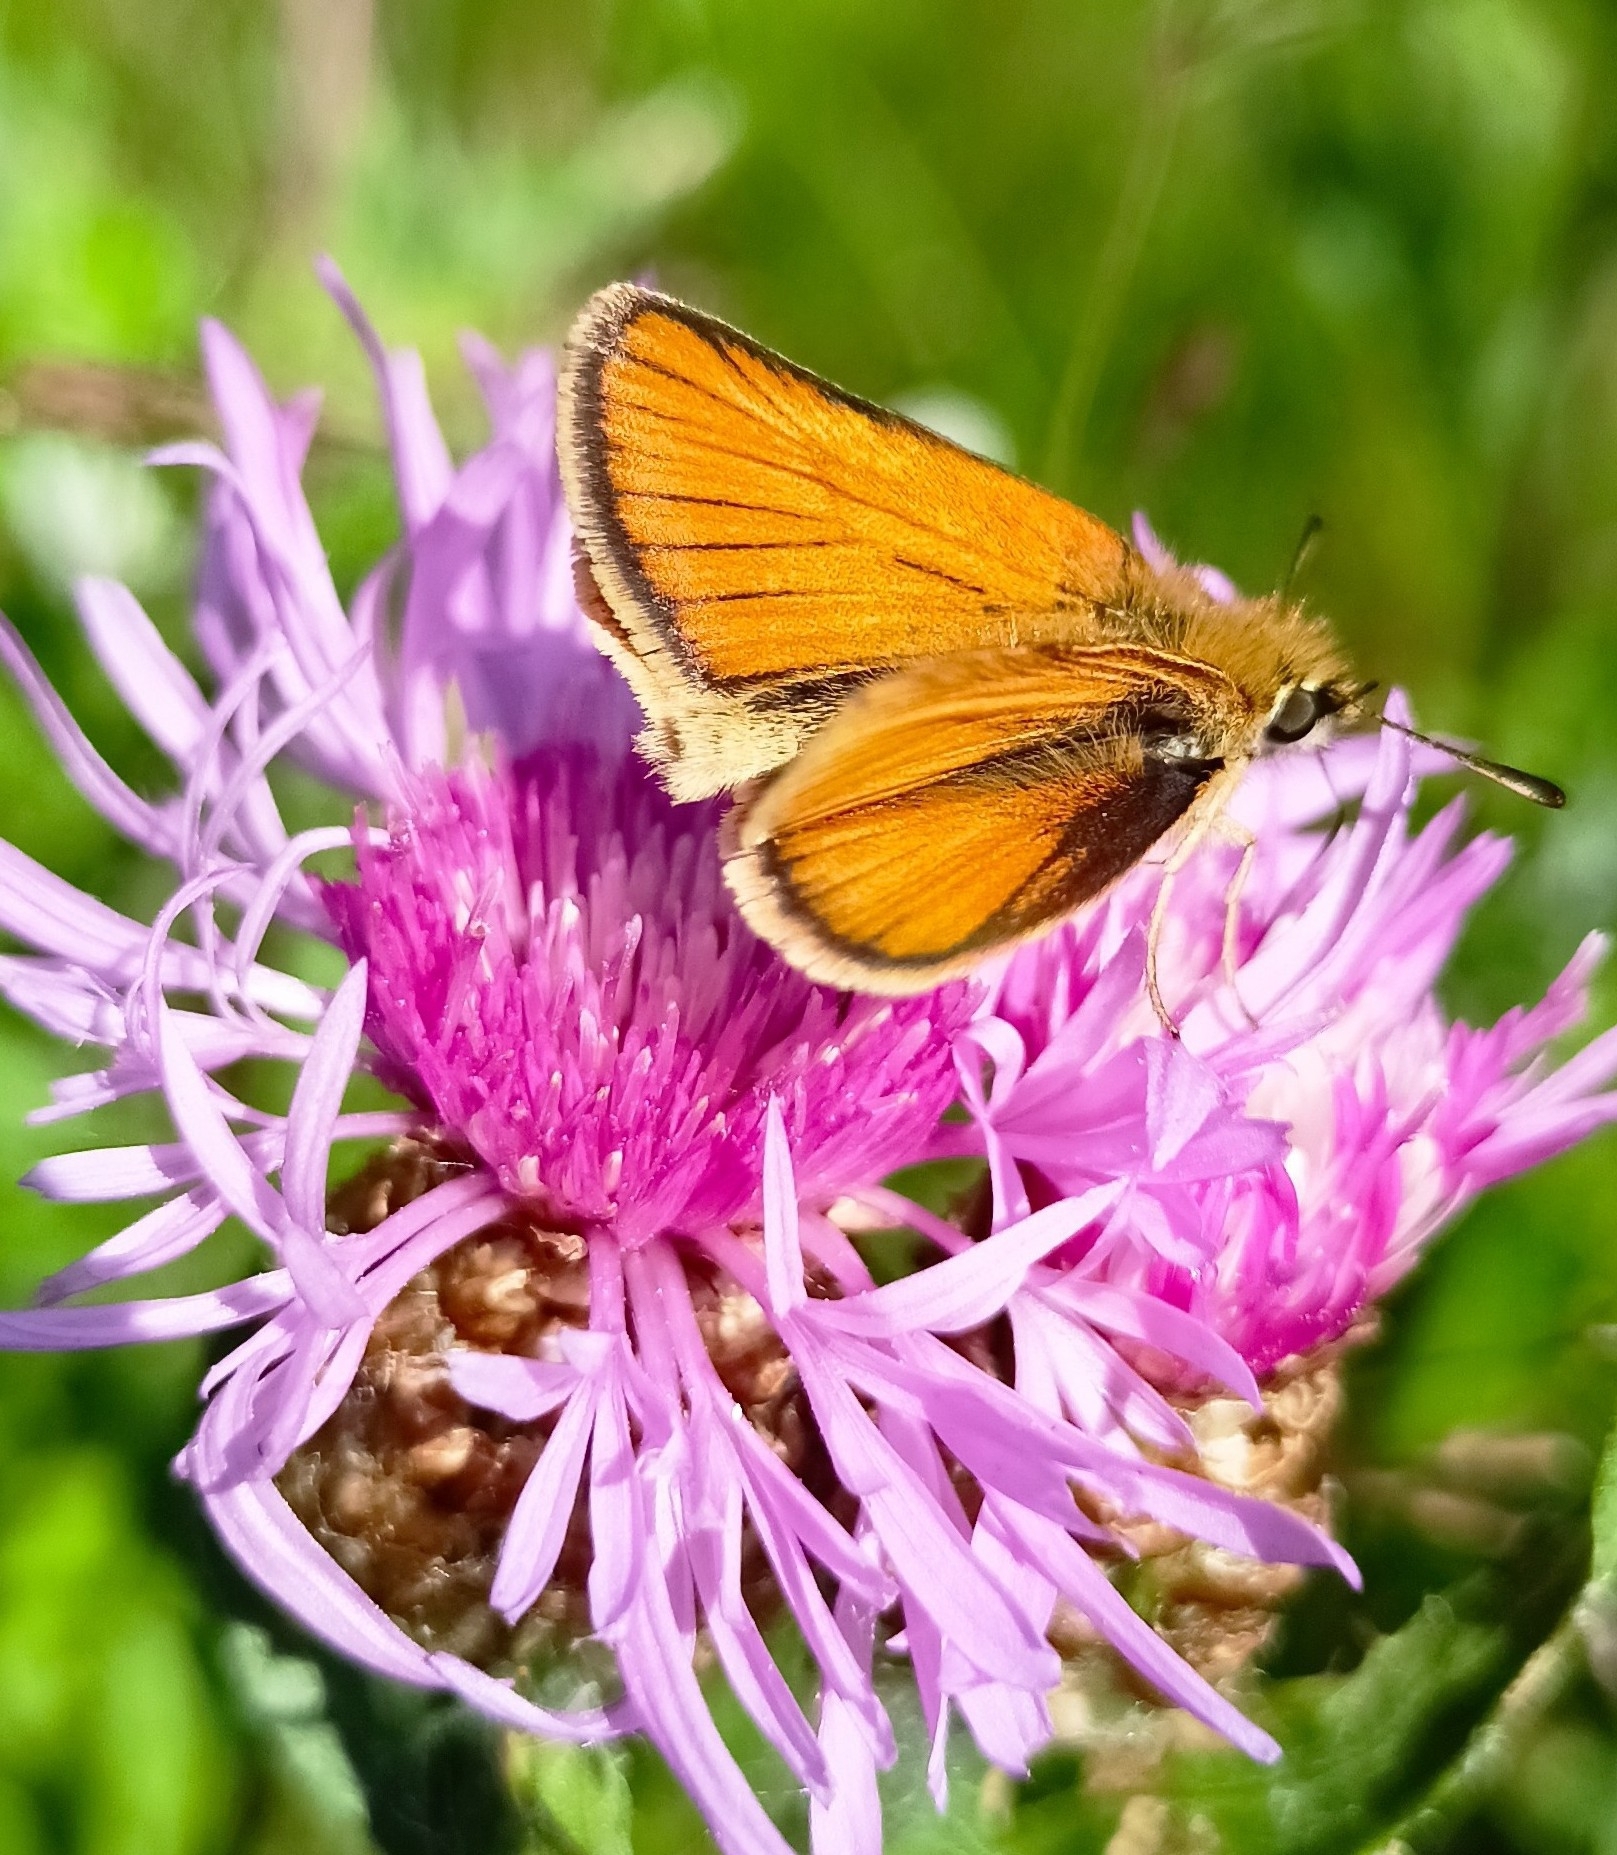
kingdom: Animalia
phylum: Arthropoda
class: Insecta
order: Lepidoptera
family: Hesperiidae
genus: Thymelicus
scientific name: Thymelicus lineola
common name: Essex skipper
